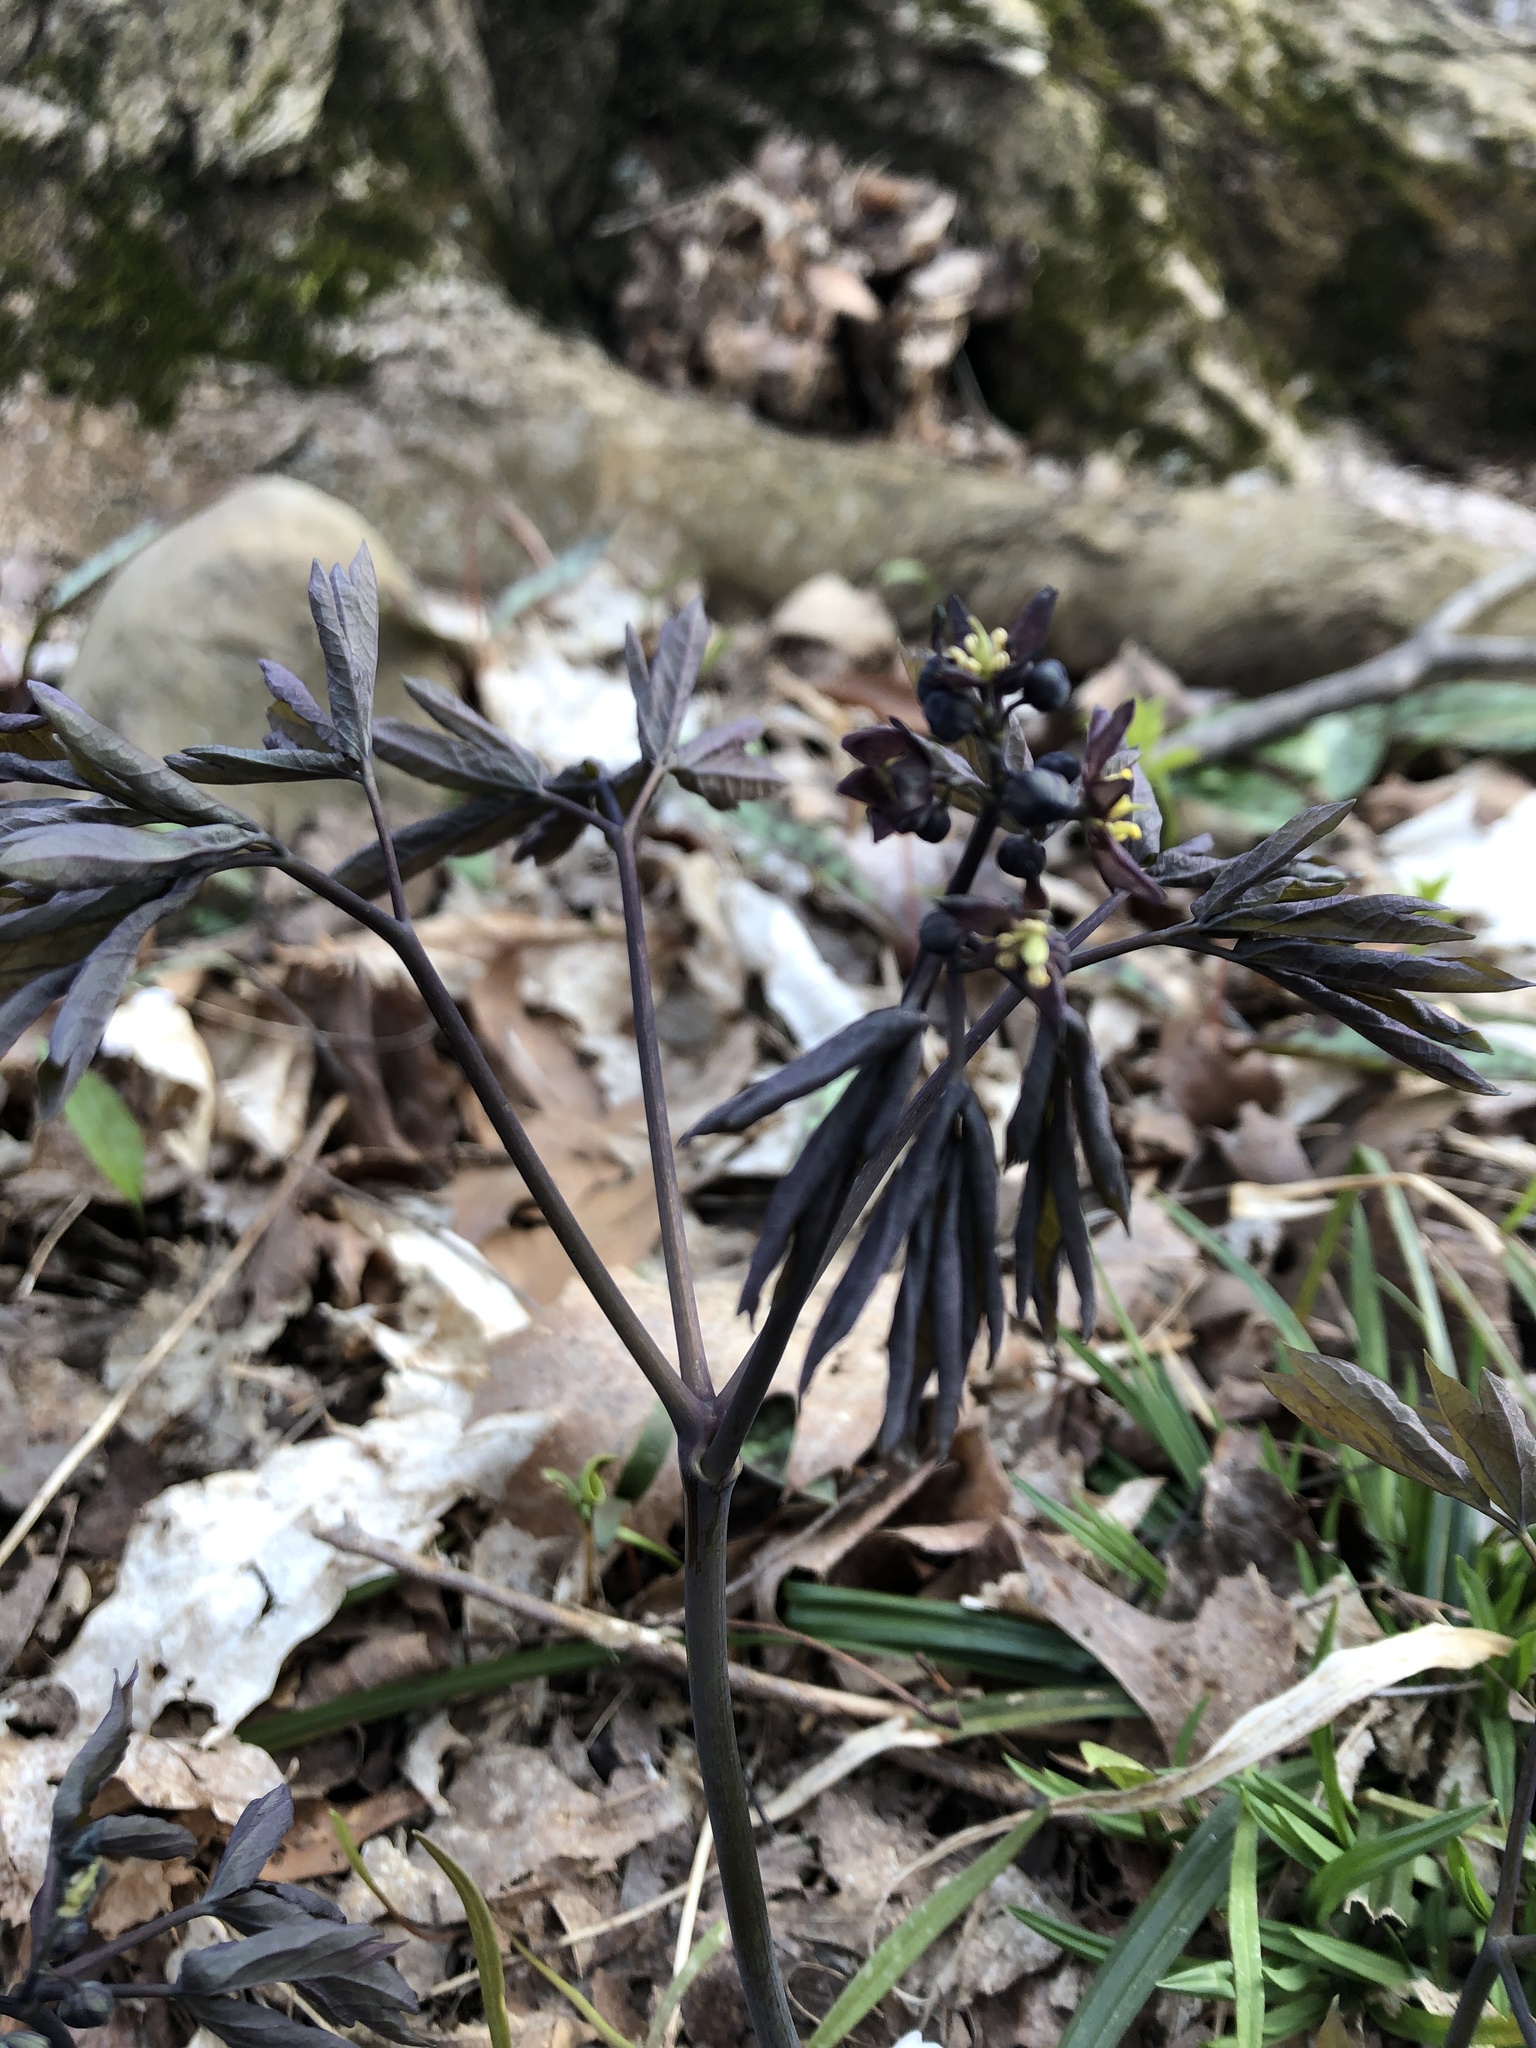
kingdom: Plantae
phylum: Tracheophyta
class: Magnoliopsida
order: Ranunculales
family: Berberidaceae
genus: Caulophyllum
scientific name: Caulophyllum giganteum
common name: Blue cohosh
